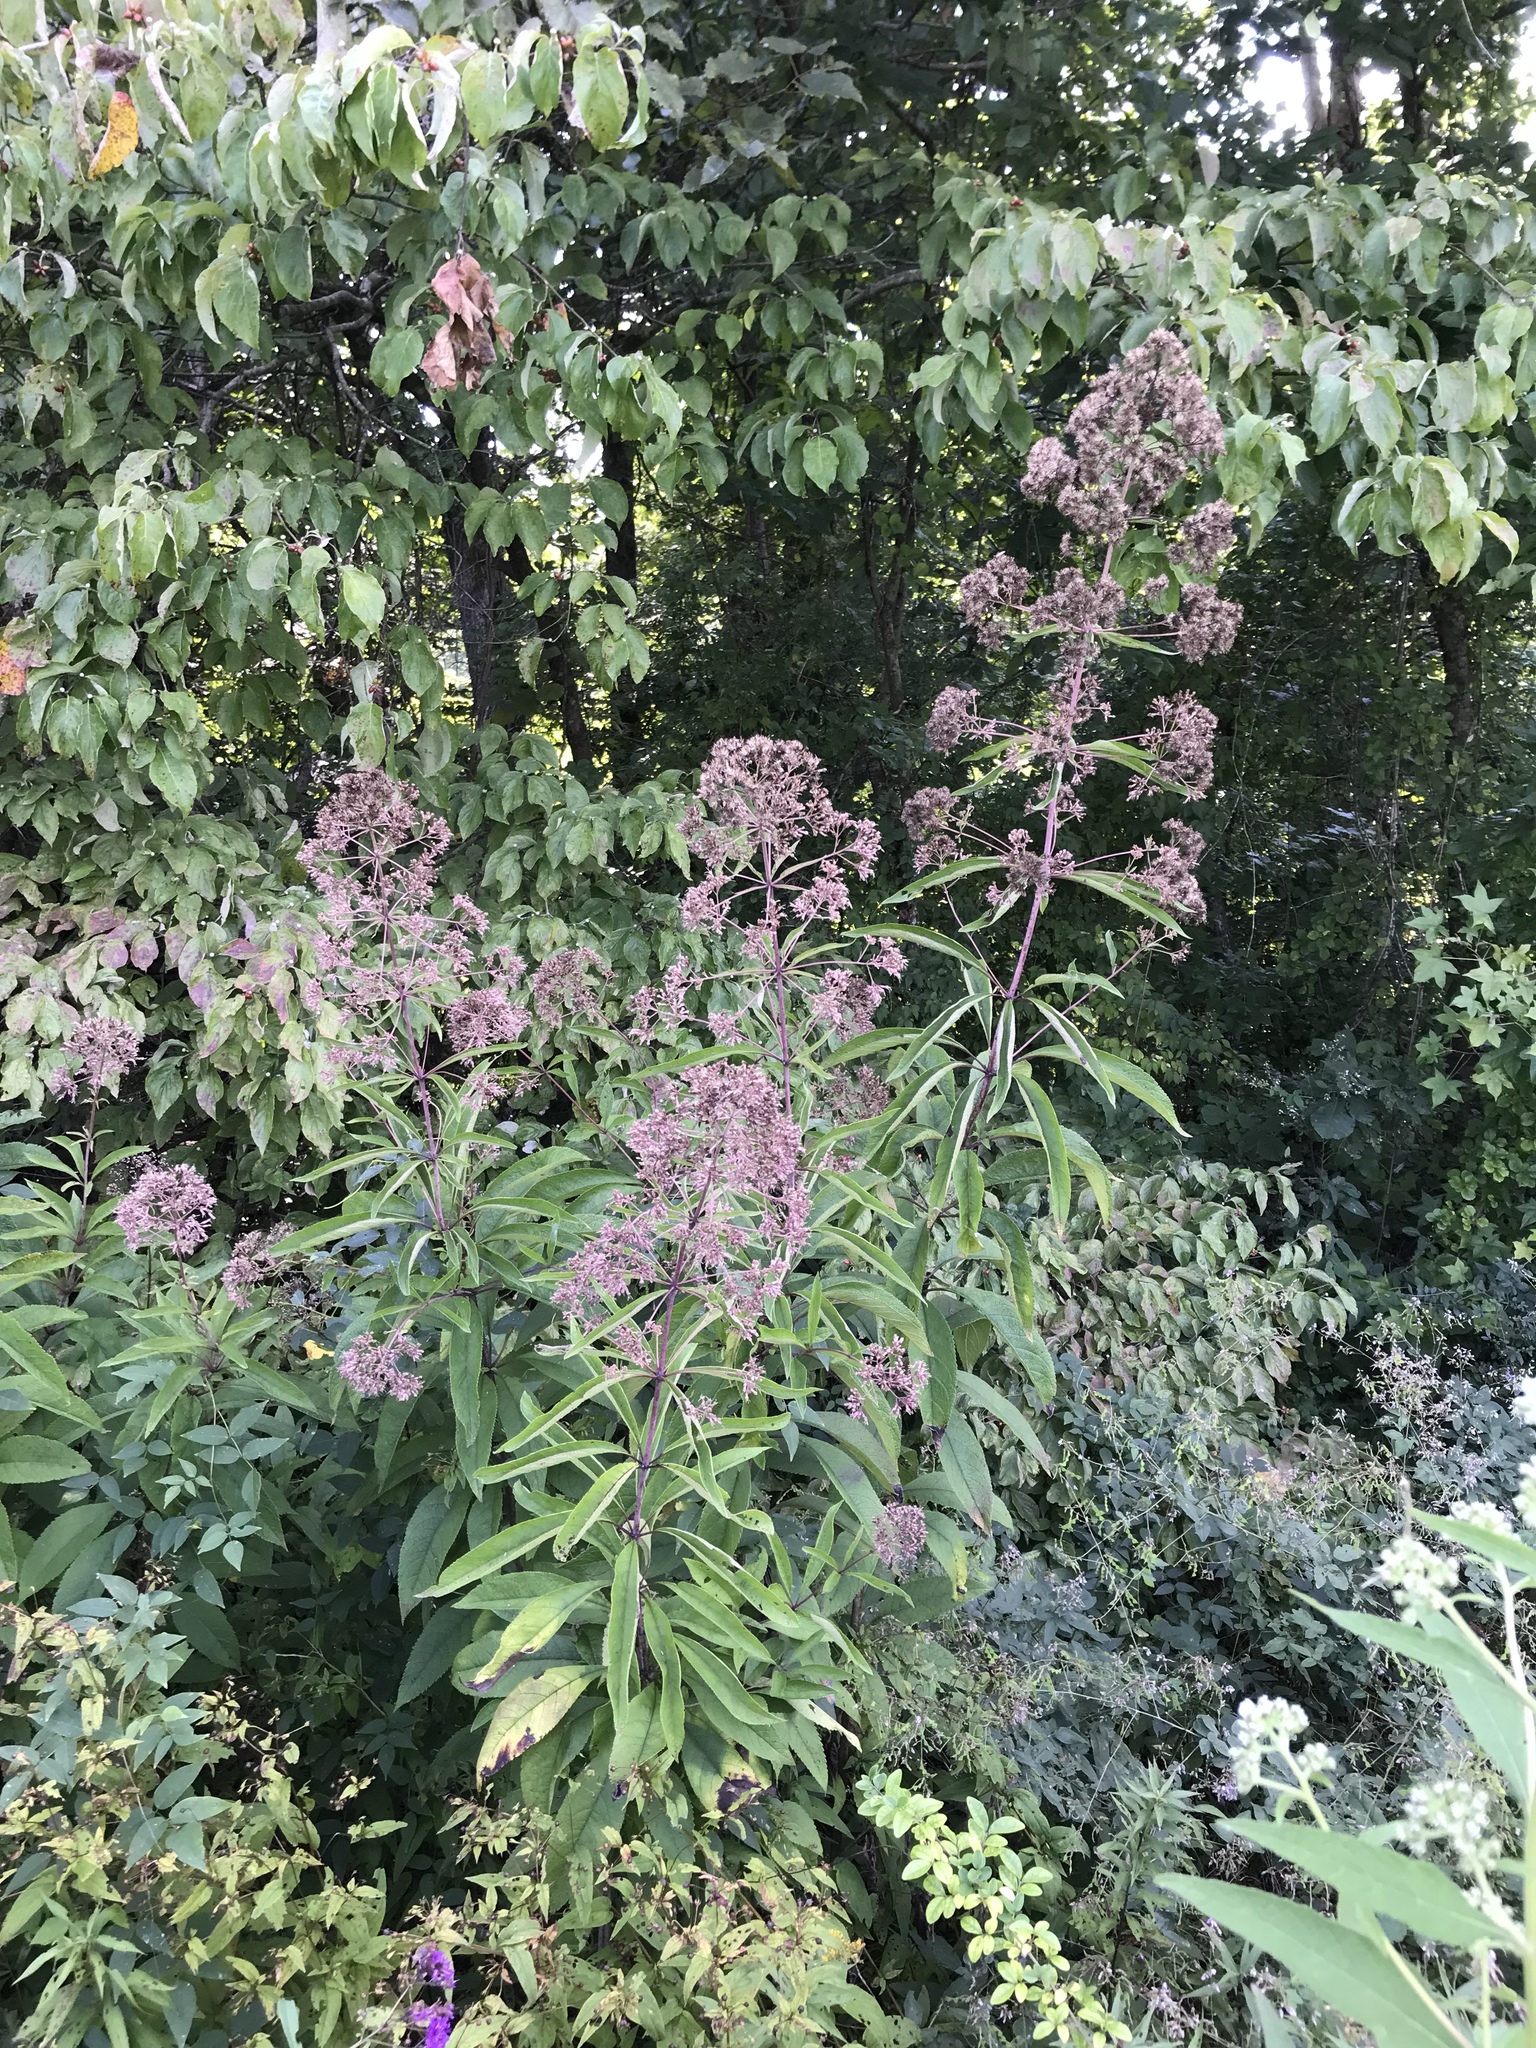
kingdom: Plantae
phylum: Tracheophyta
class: Magnoliopsida
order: Asterales
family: Asteraceae
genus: Eutrochium
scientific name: Eutrochium fistulosum
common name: Trumpetweed
